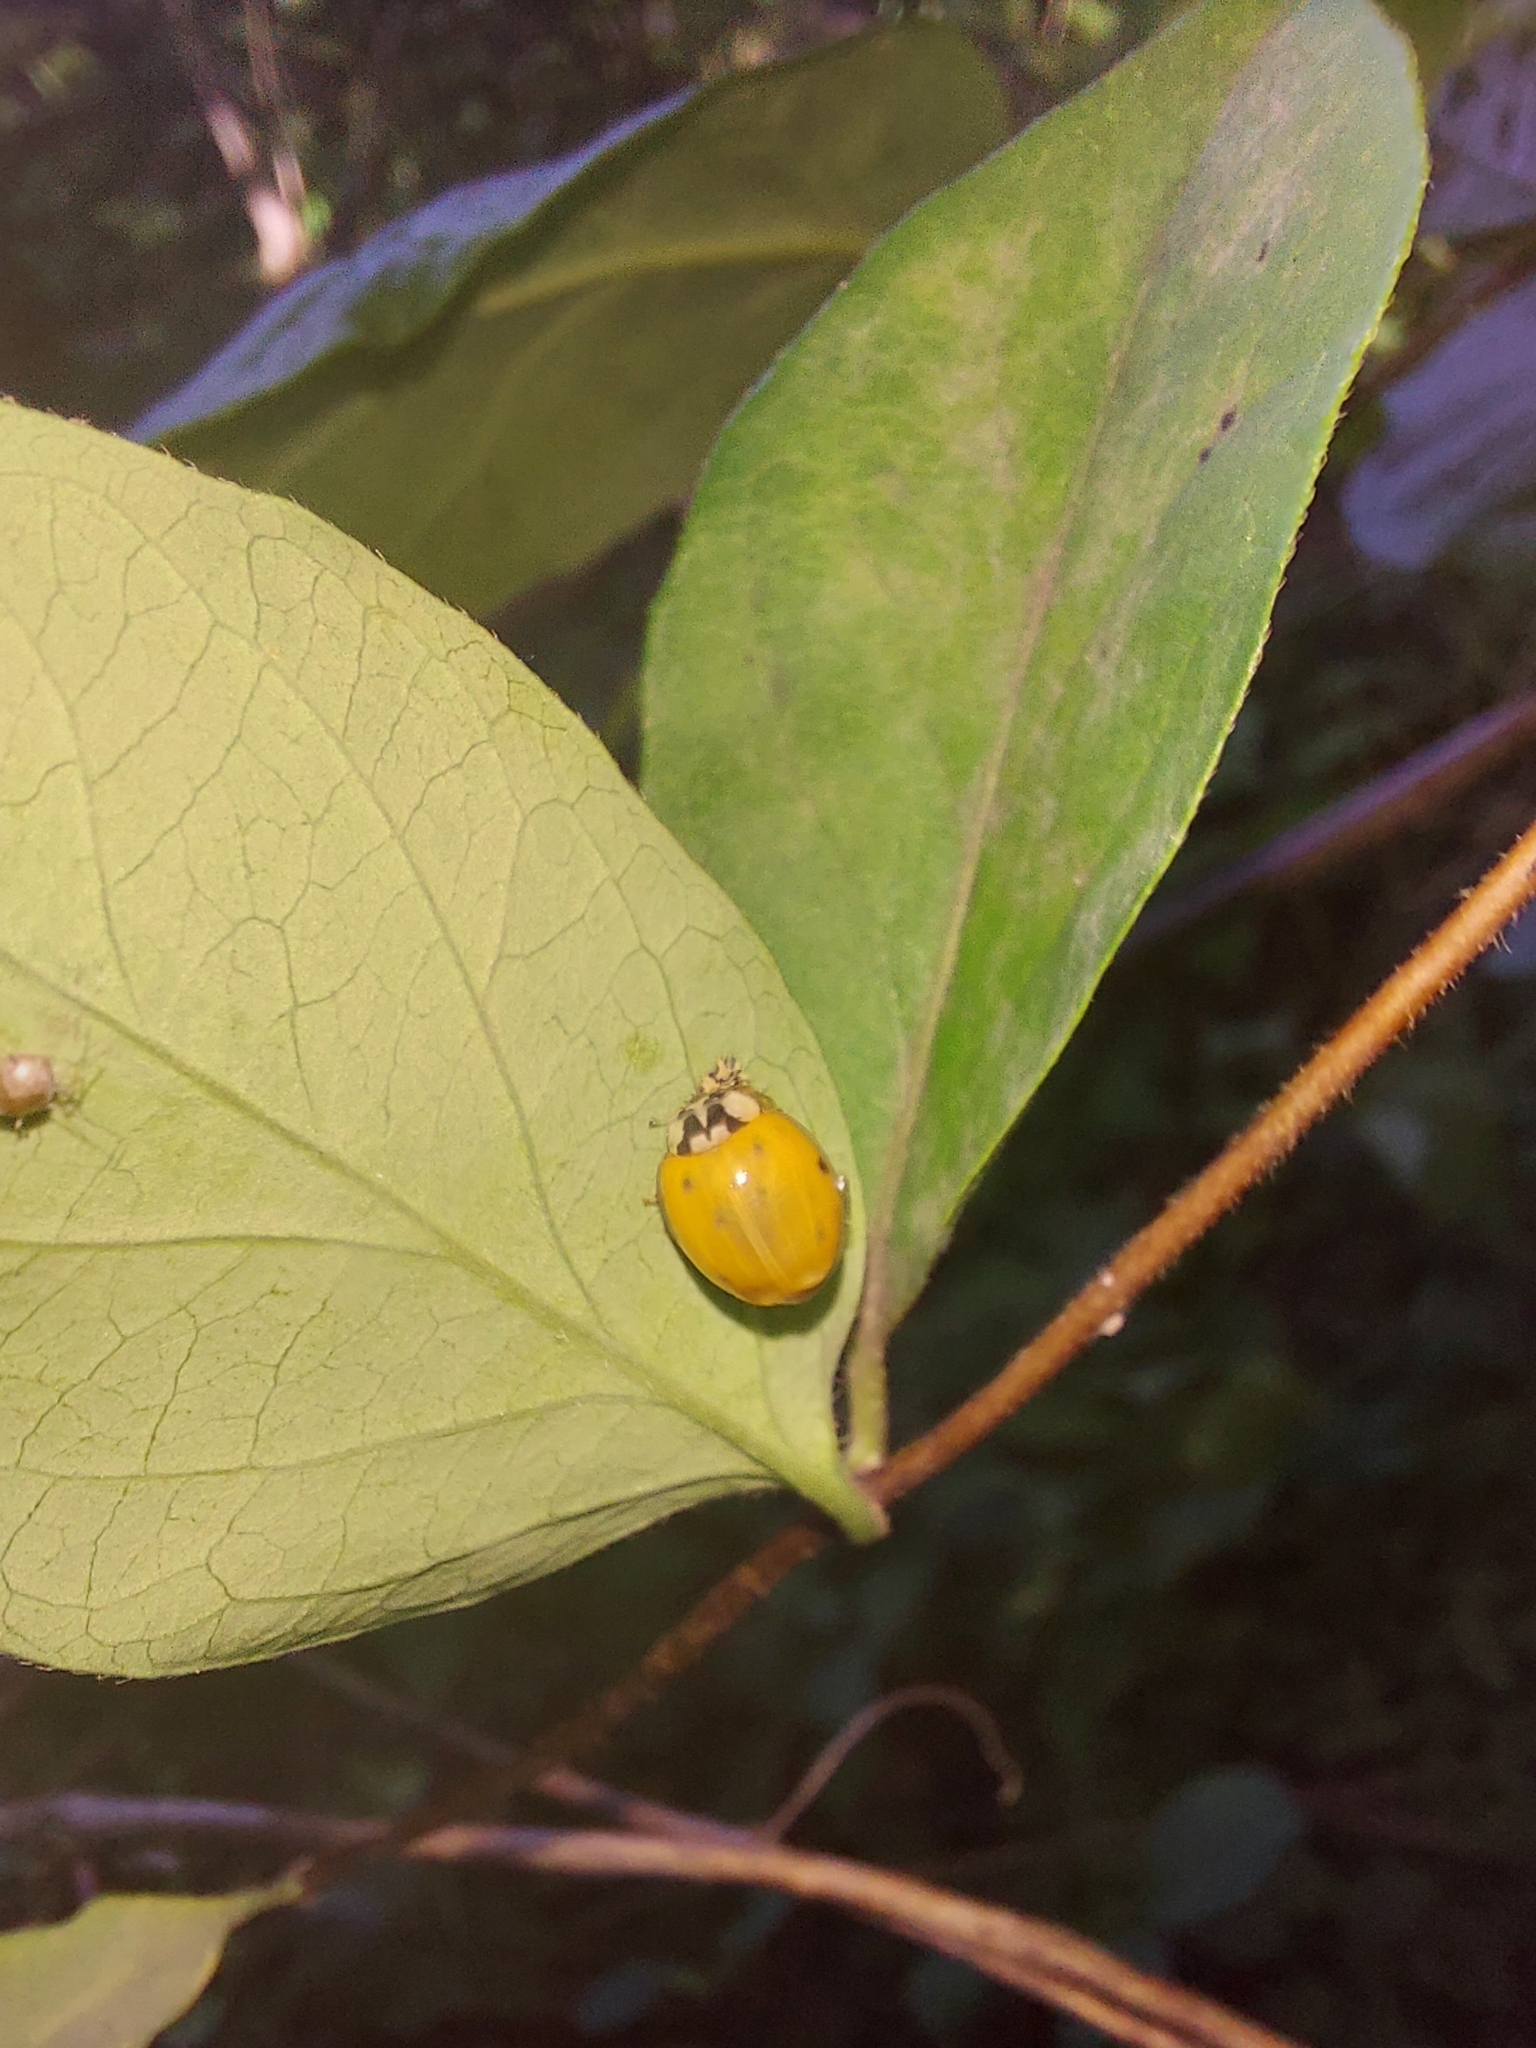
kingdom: Animalia
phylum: Arthropoda
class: Insecta
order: Coleoptera
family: Coccinellidae
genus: Harmonia
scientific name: Harmonia axyridis
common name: Harlequin ladybird
